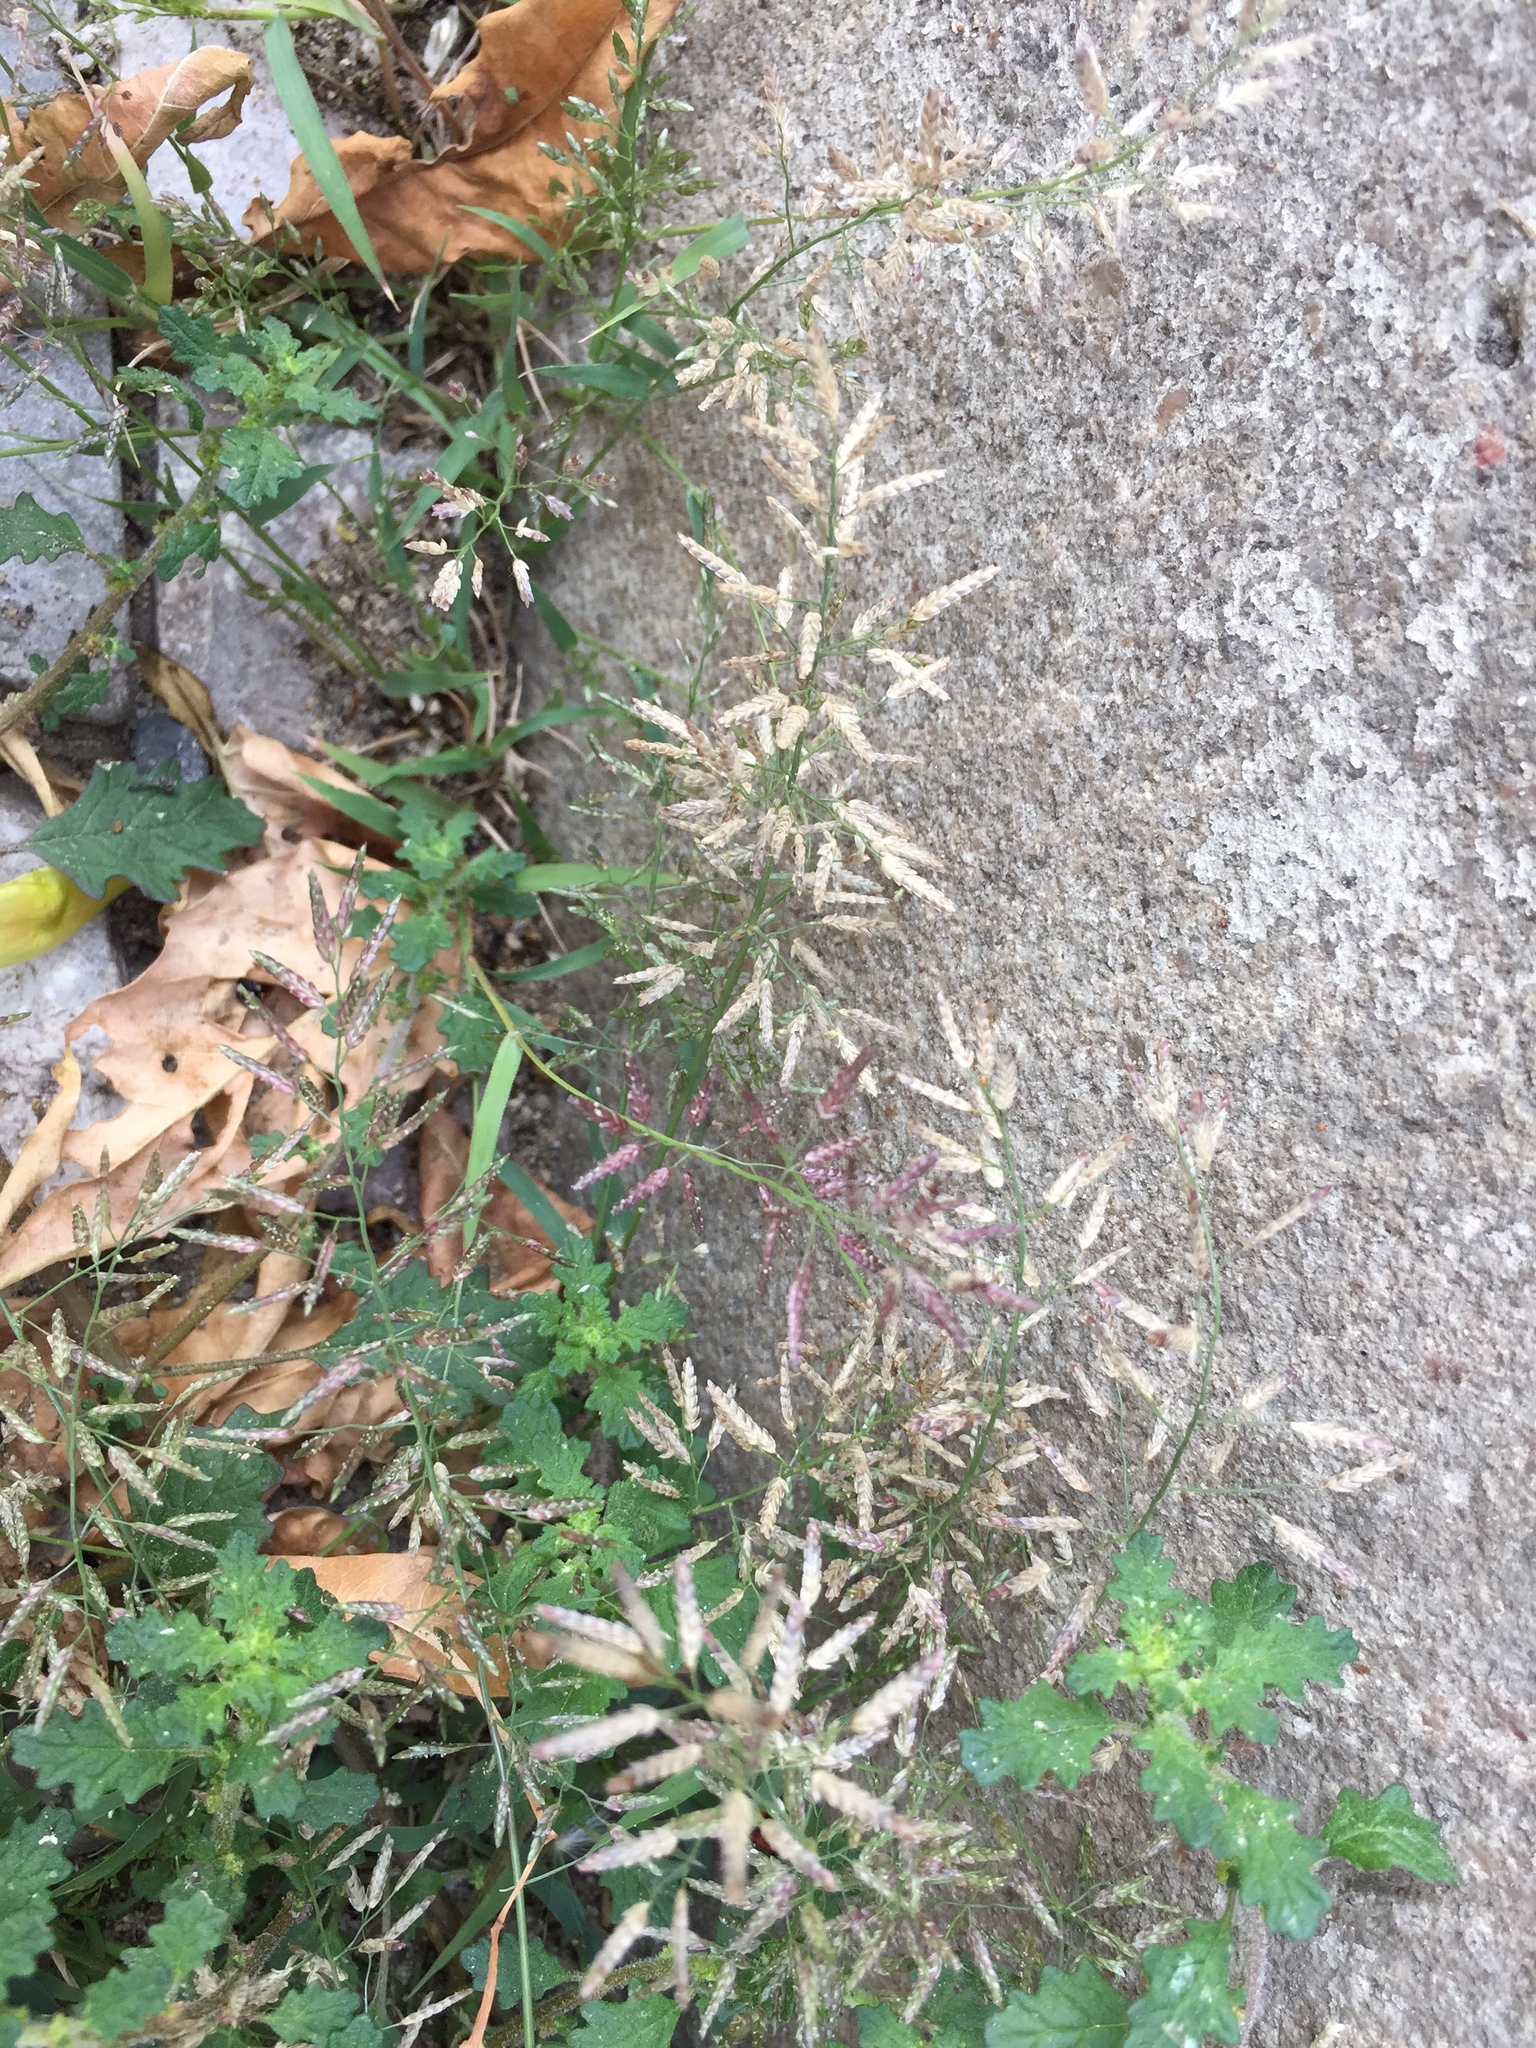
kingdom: Plantae
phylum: Tracheophyta
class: Liliopsida
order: Poales
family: Poaceae
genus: Eragrostis
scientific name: Eragrostis minor
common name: Small love-grass
